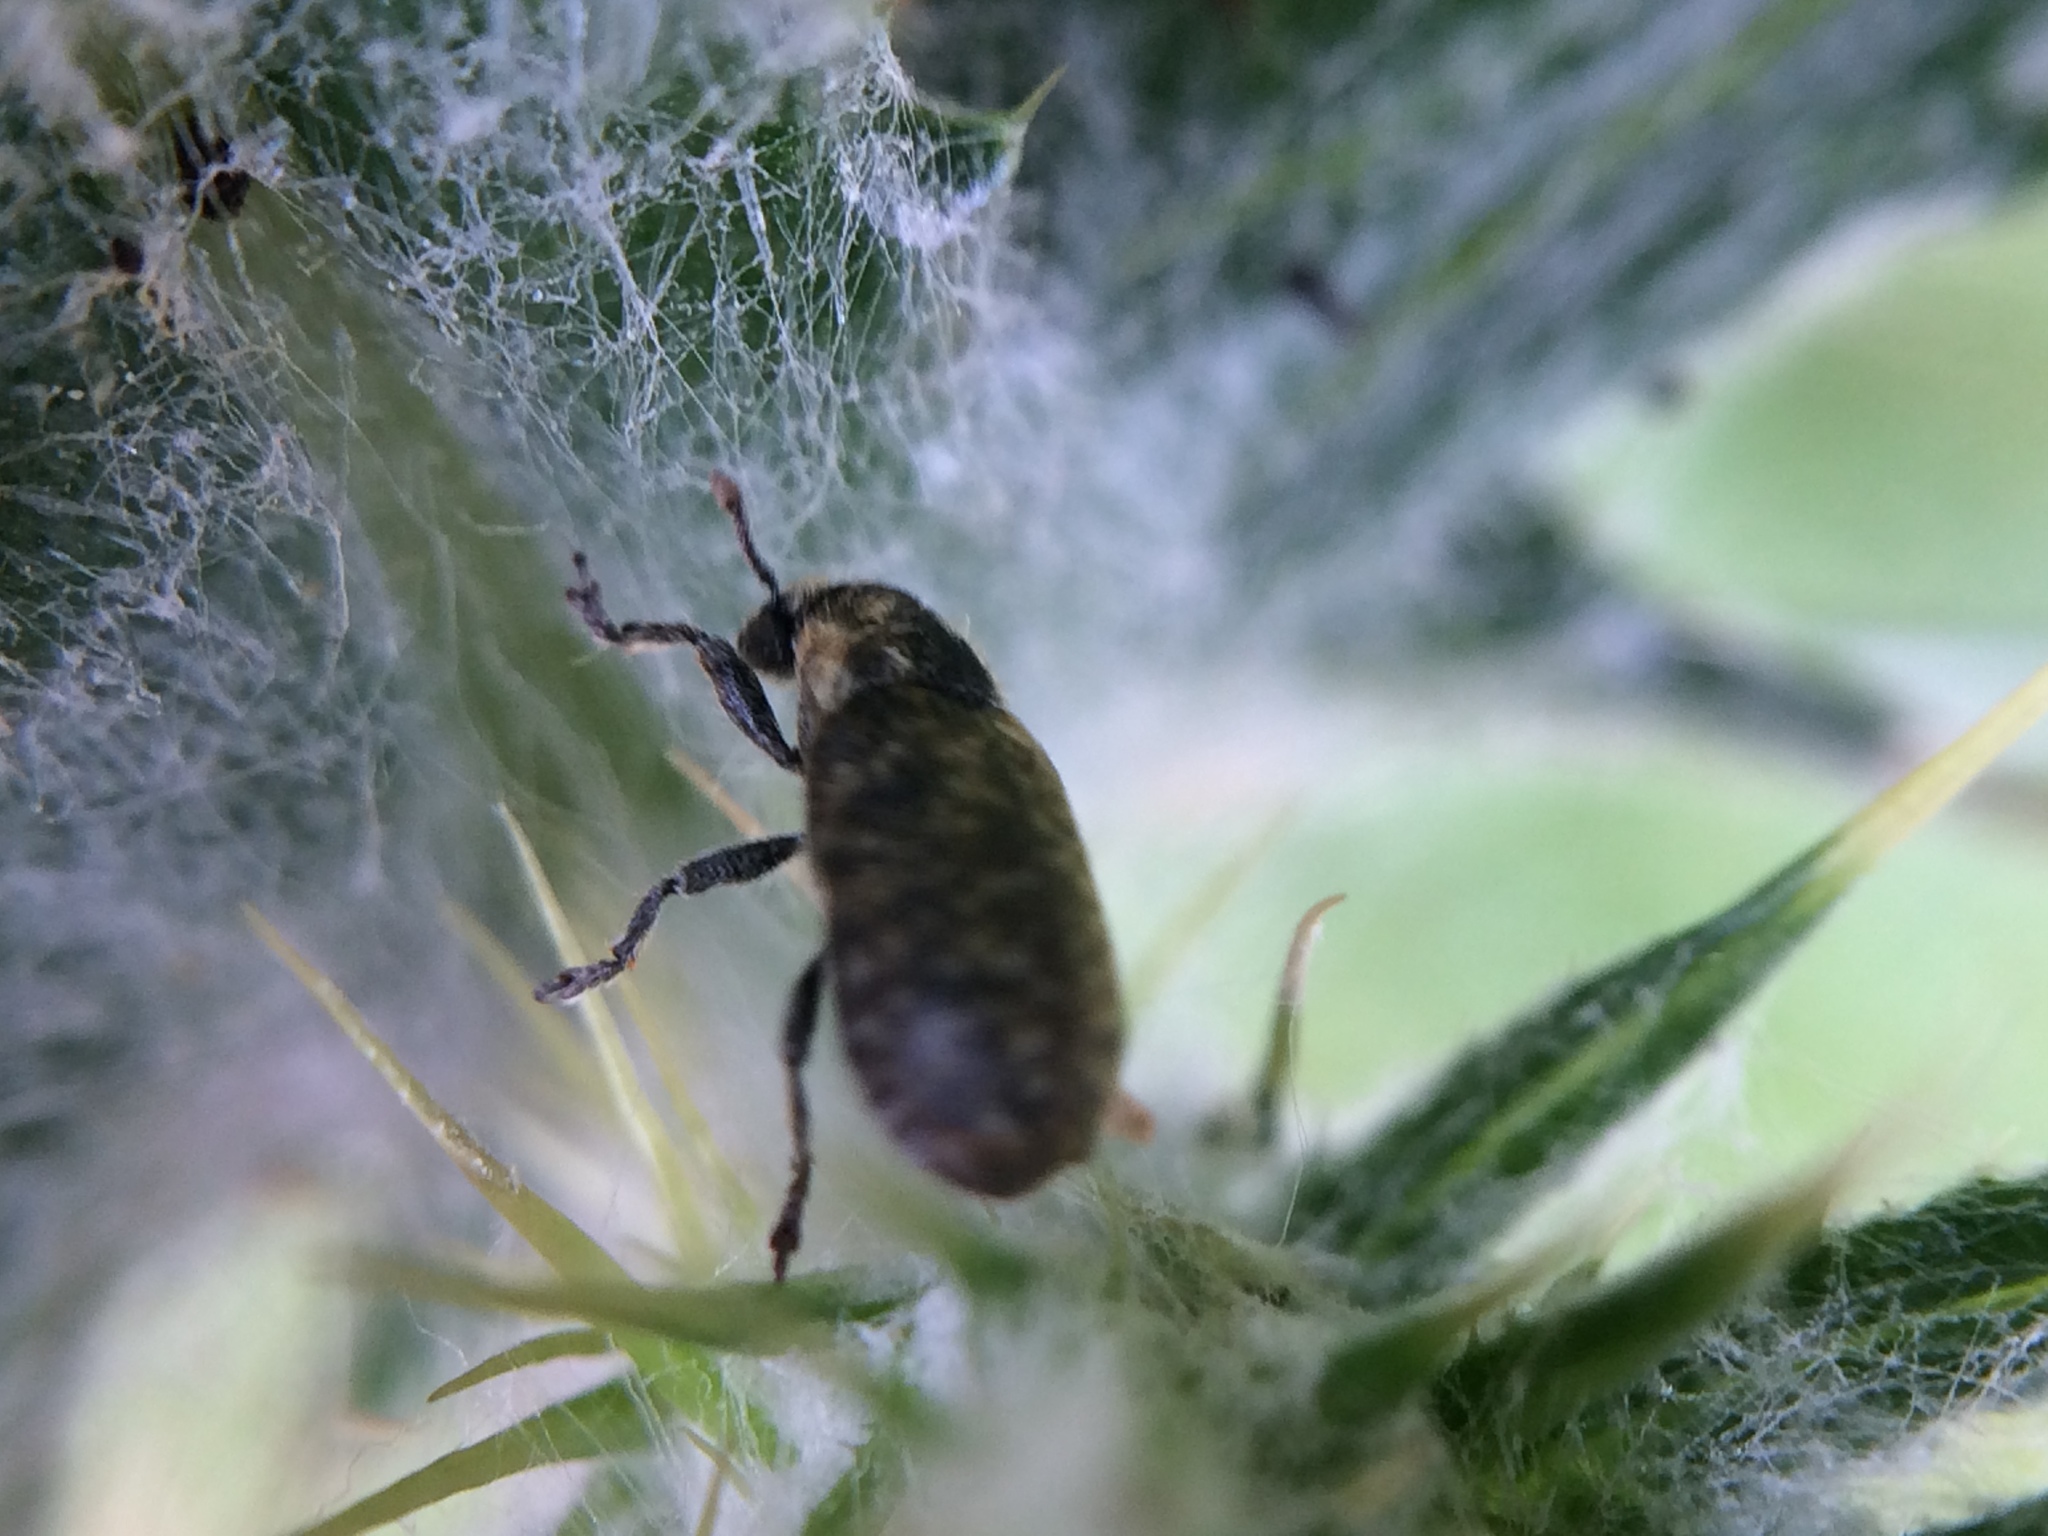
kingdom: Animalia
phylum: Arthropoda
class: Insecta
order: Coleoptera
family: Curculionidae
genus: Rhinocyllus
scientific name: Rhinocyllus conicus
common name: Weevil
